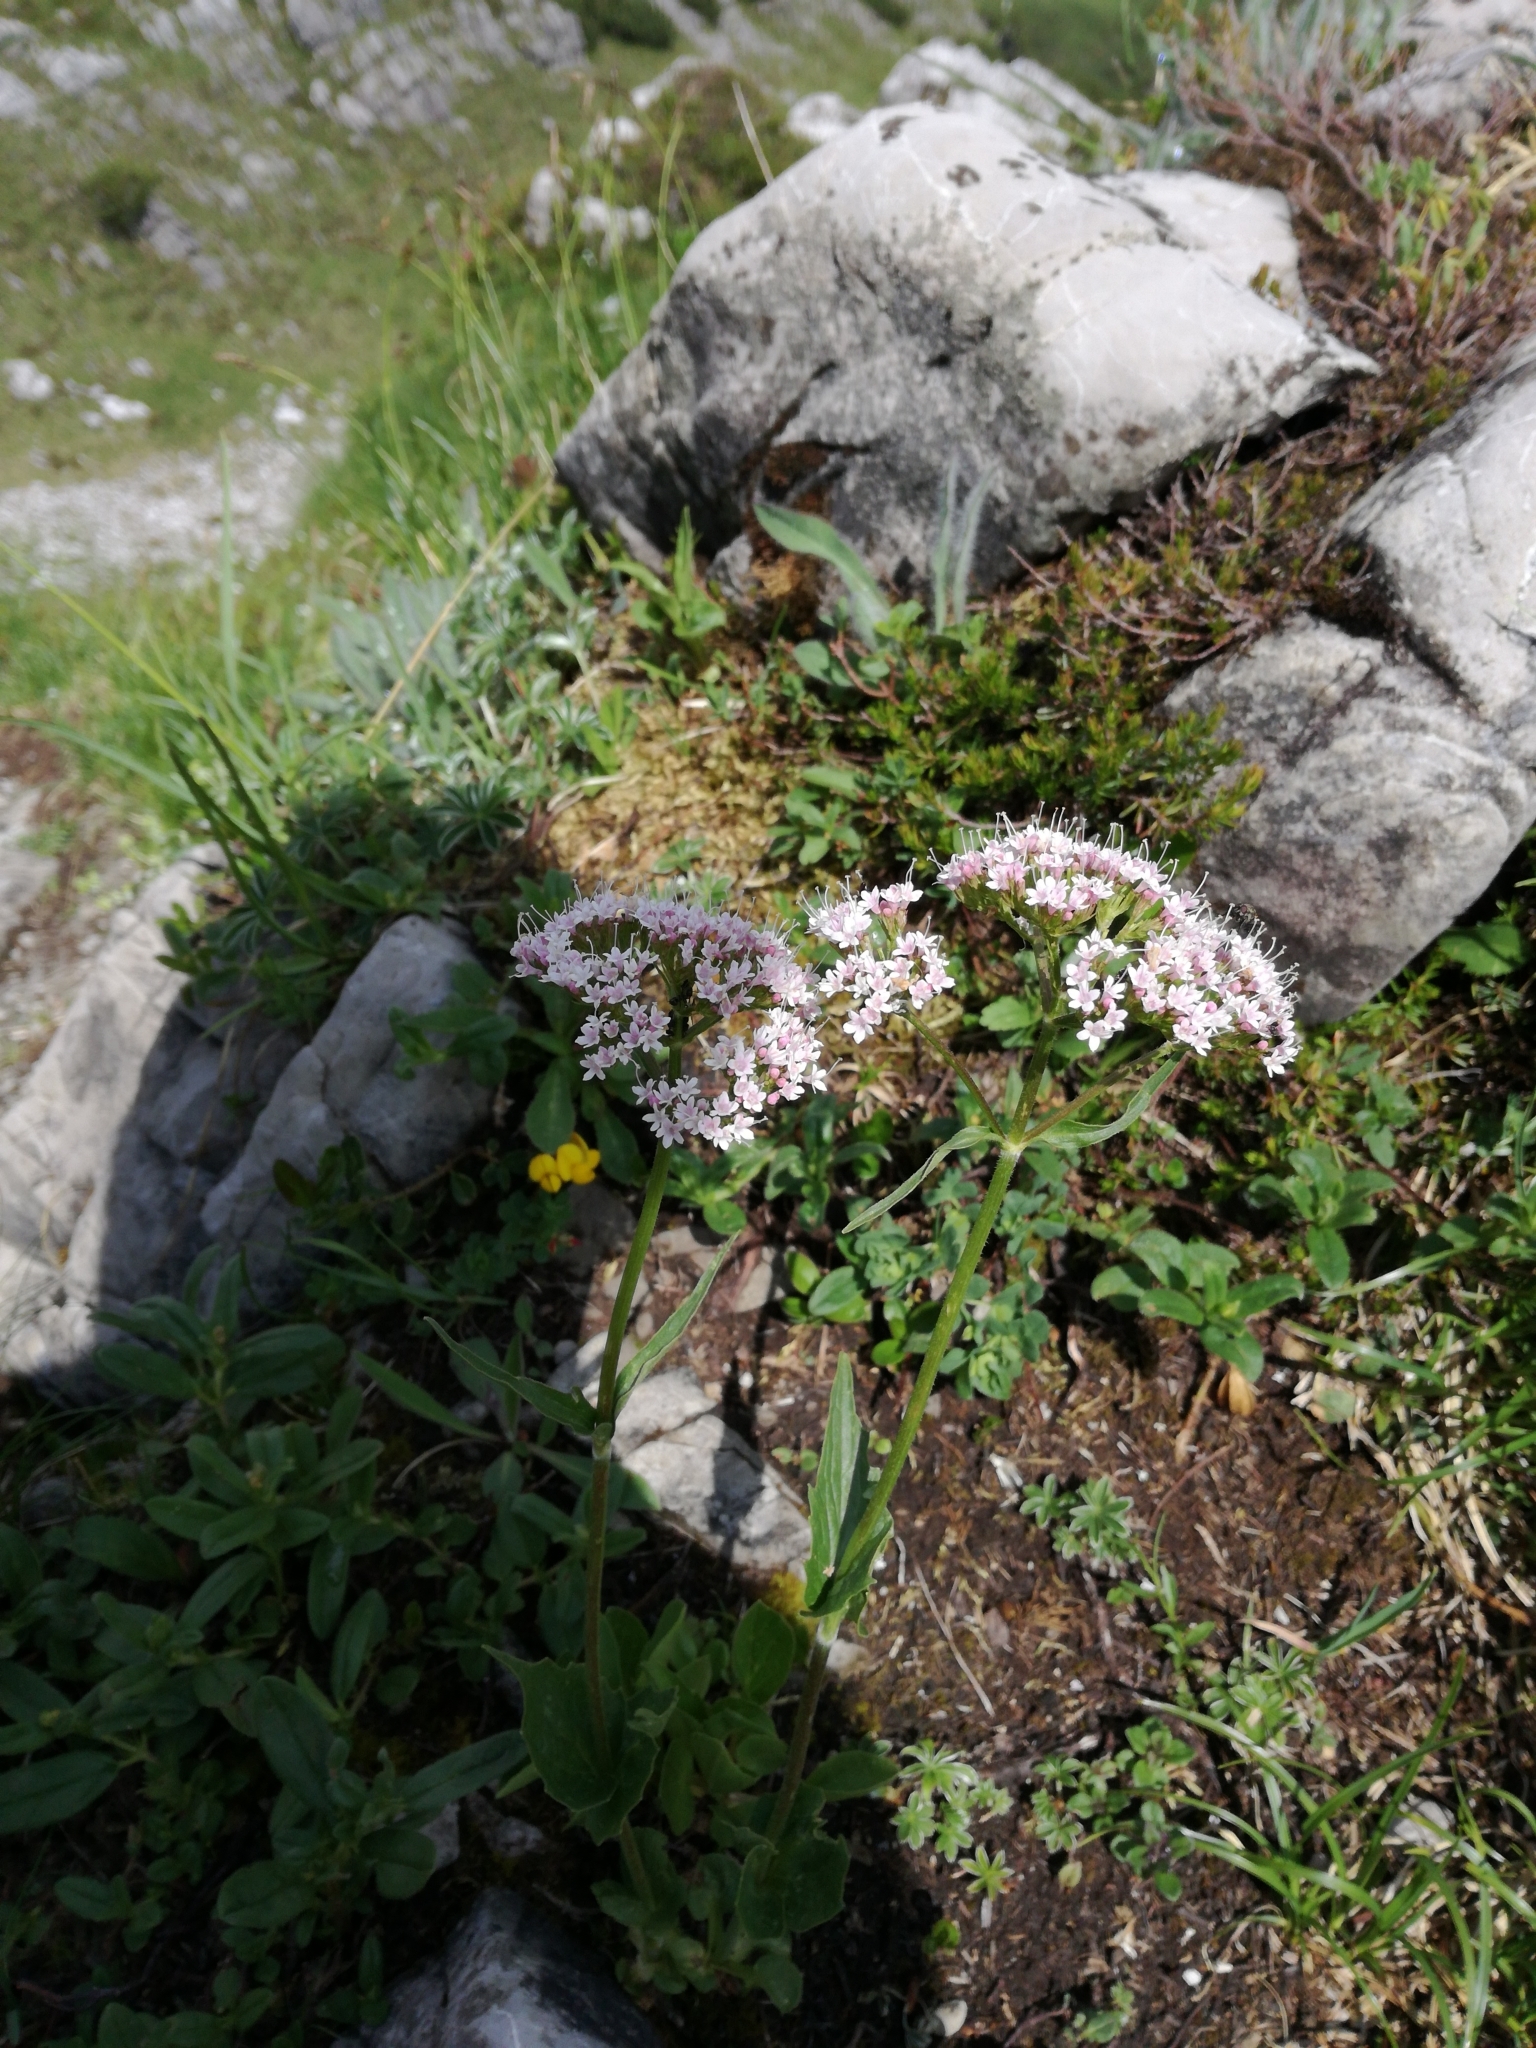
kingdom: Plantae
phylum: Tracheophyta
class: Magnoliopsida
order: Dipsacales
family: Caprifoliaceae
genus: Valeriana
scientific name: Valeriana montana
